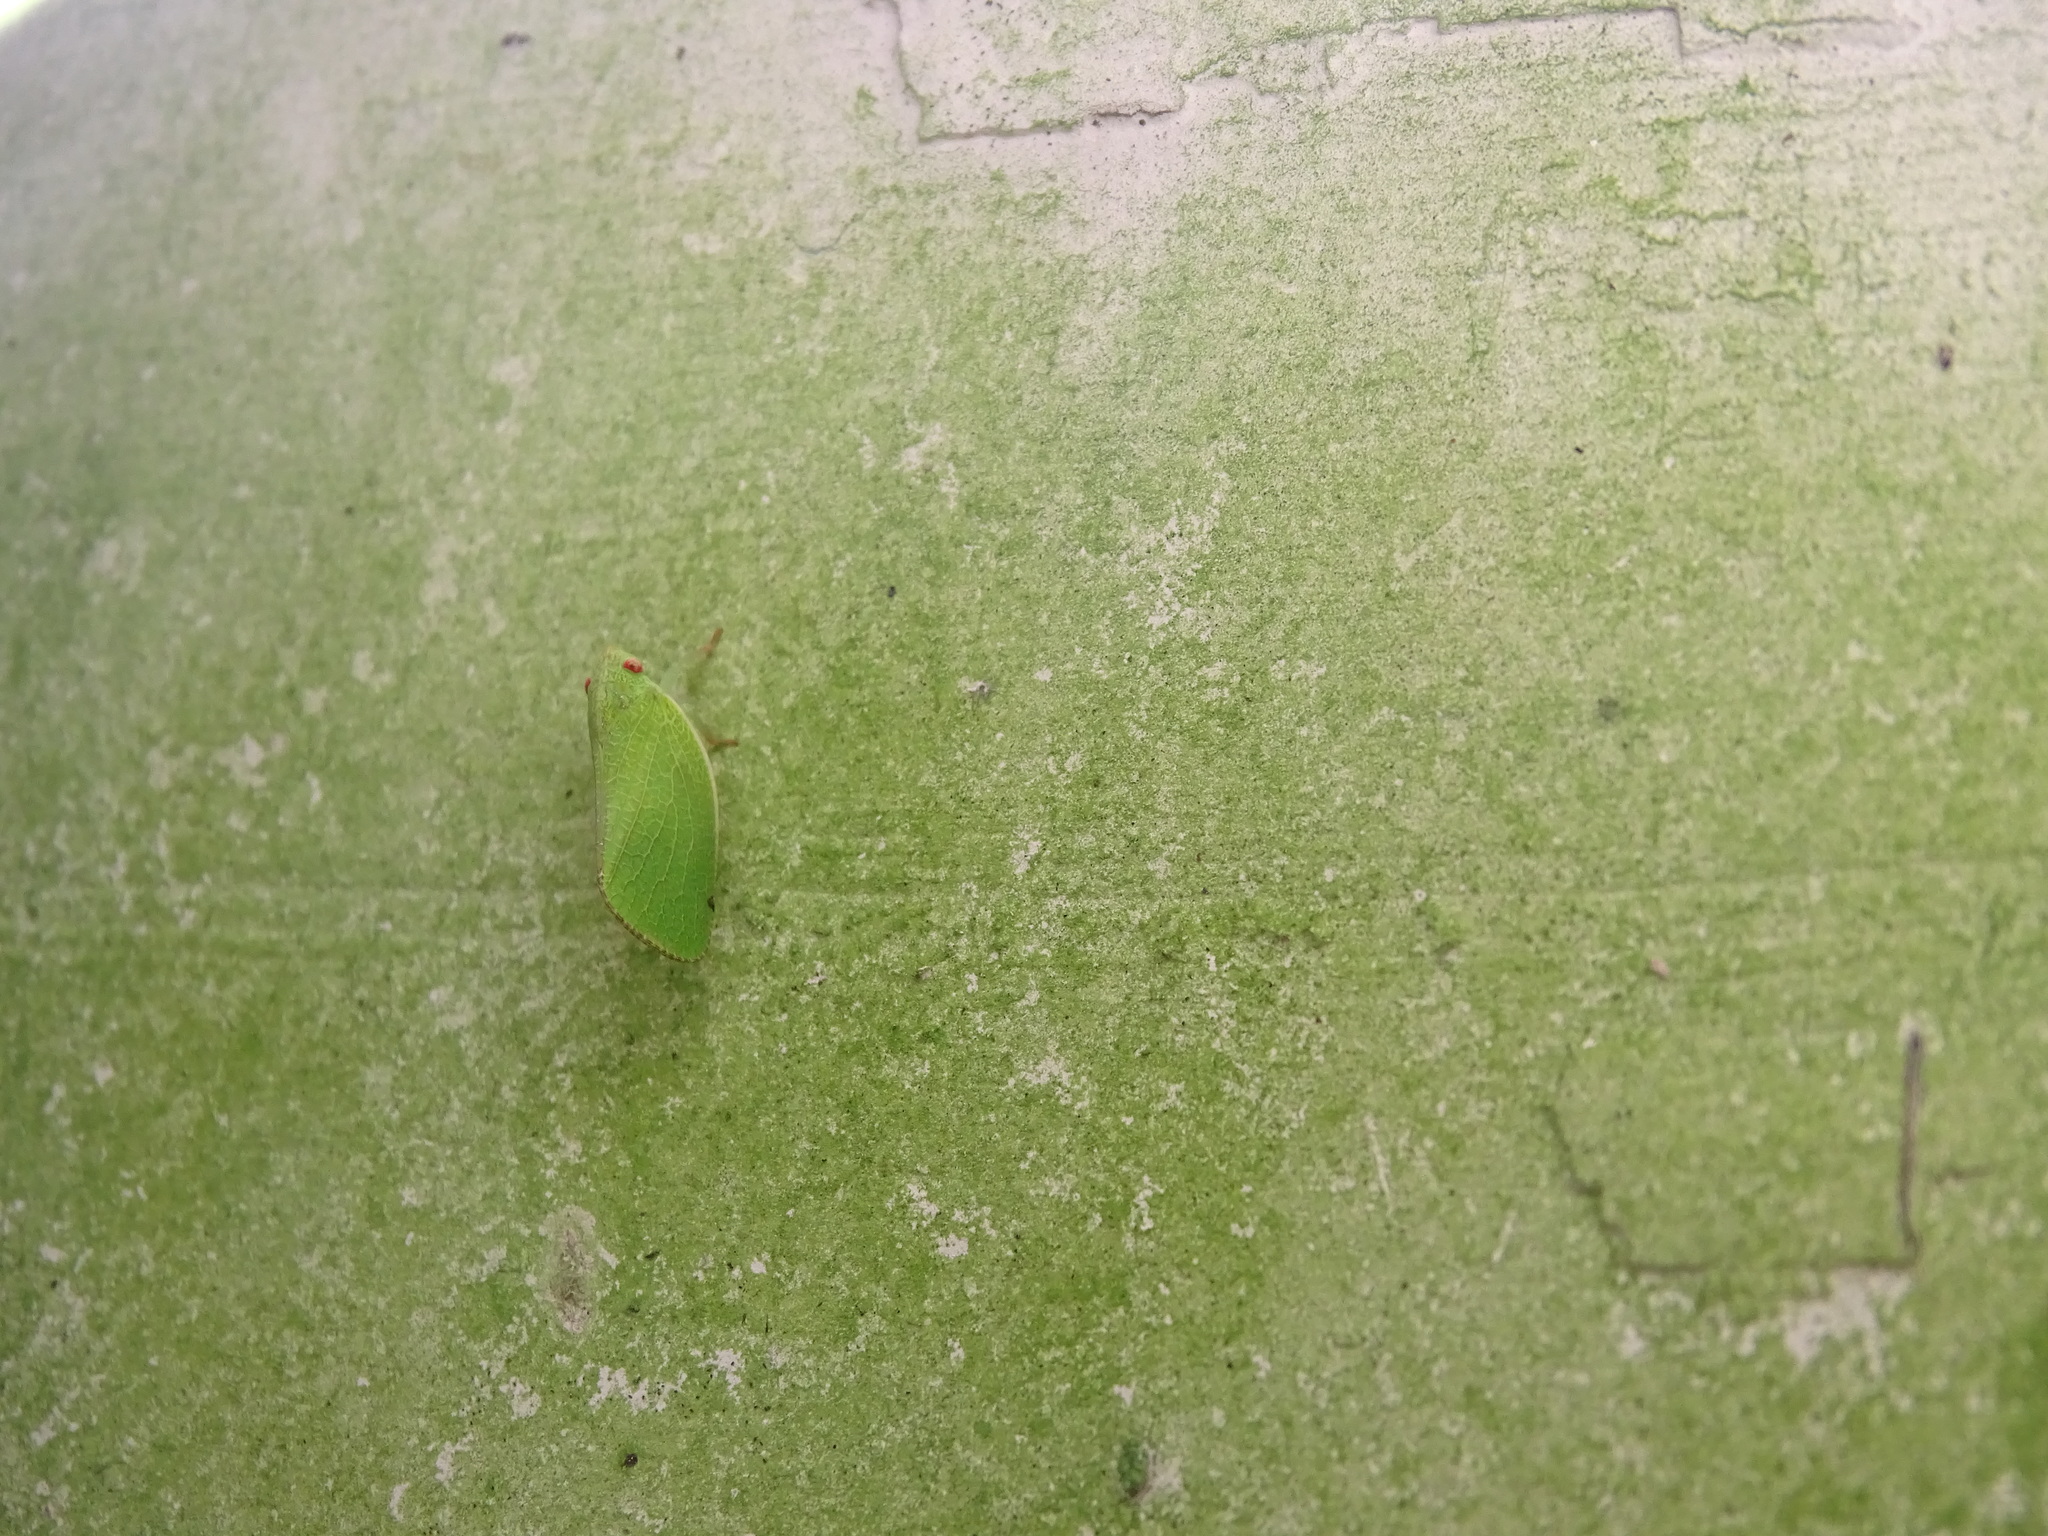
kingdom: Animalia
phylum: Arthropoda
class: Insecta
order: Hemiptera
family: Acanaloniidae
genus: Acanalonia
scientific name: Acanalonia conica
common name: Green cone-headed planthopper
